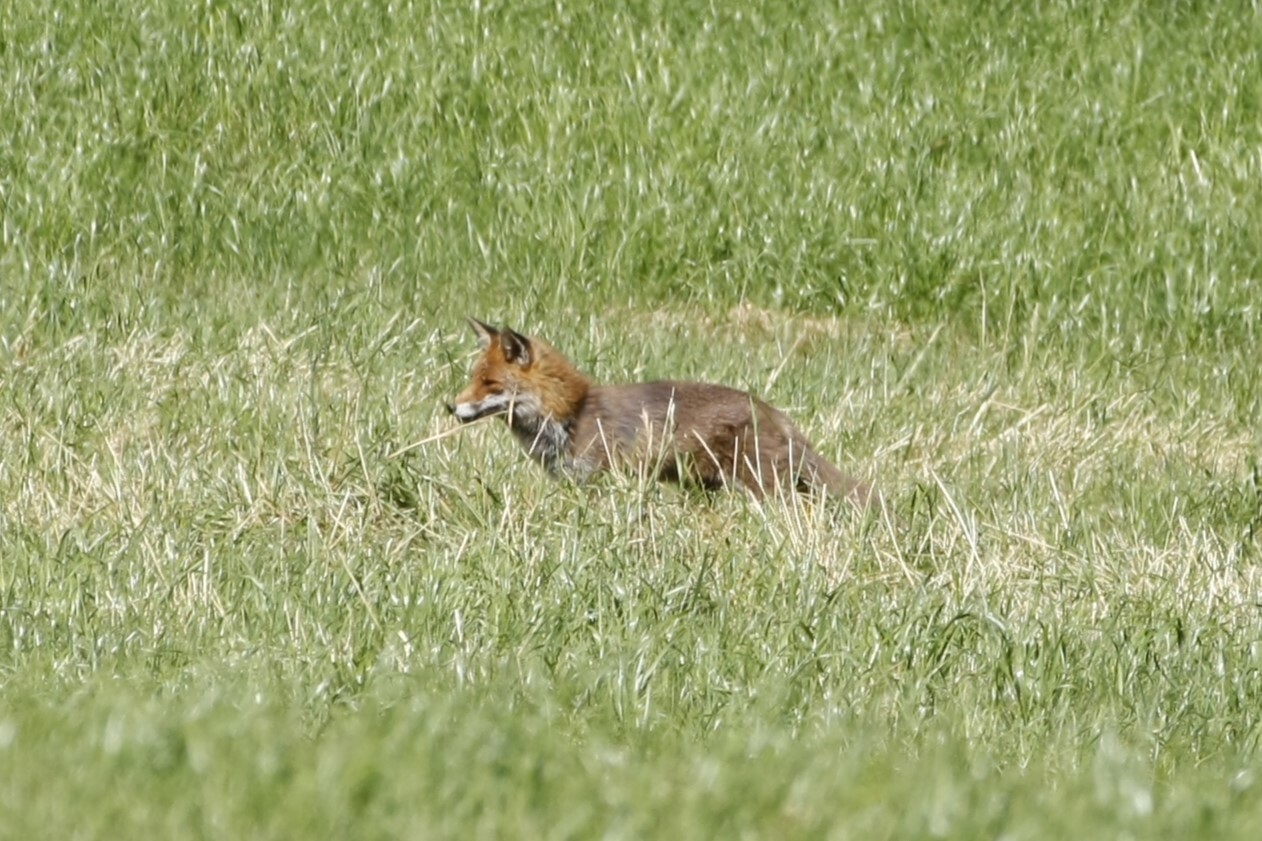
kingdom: Animalia
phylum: Chordata
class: Mammalia
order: Carnivora
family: Canidae
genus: Vulpes
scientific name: Vulpes vulpes
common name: Red fox
